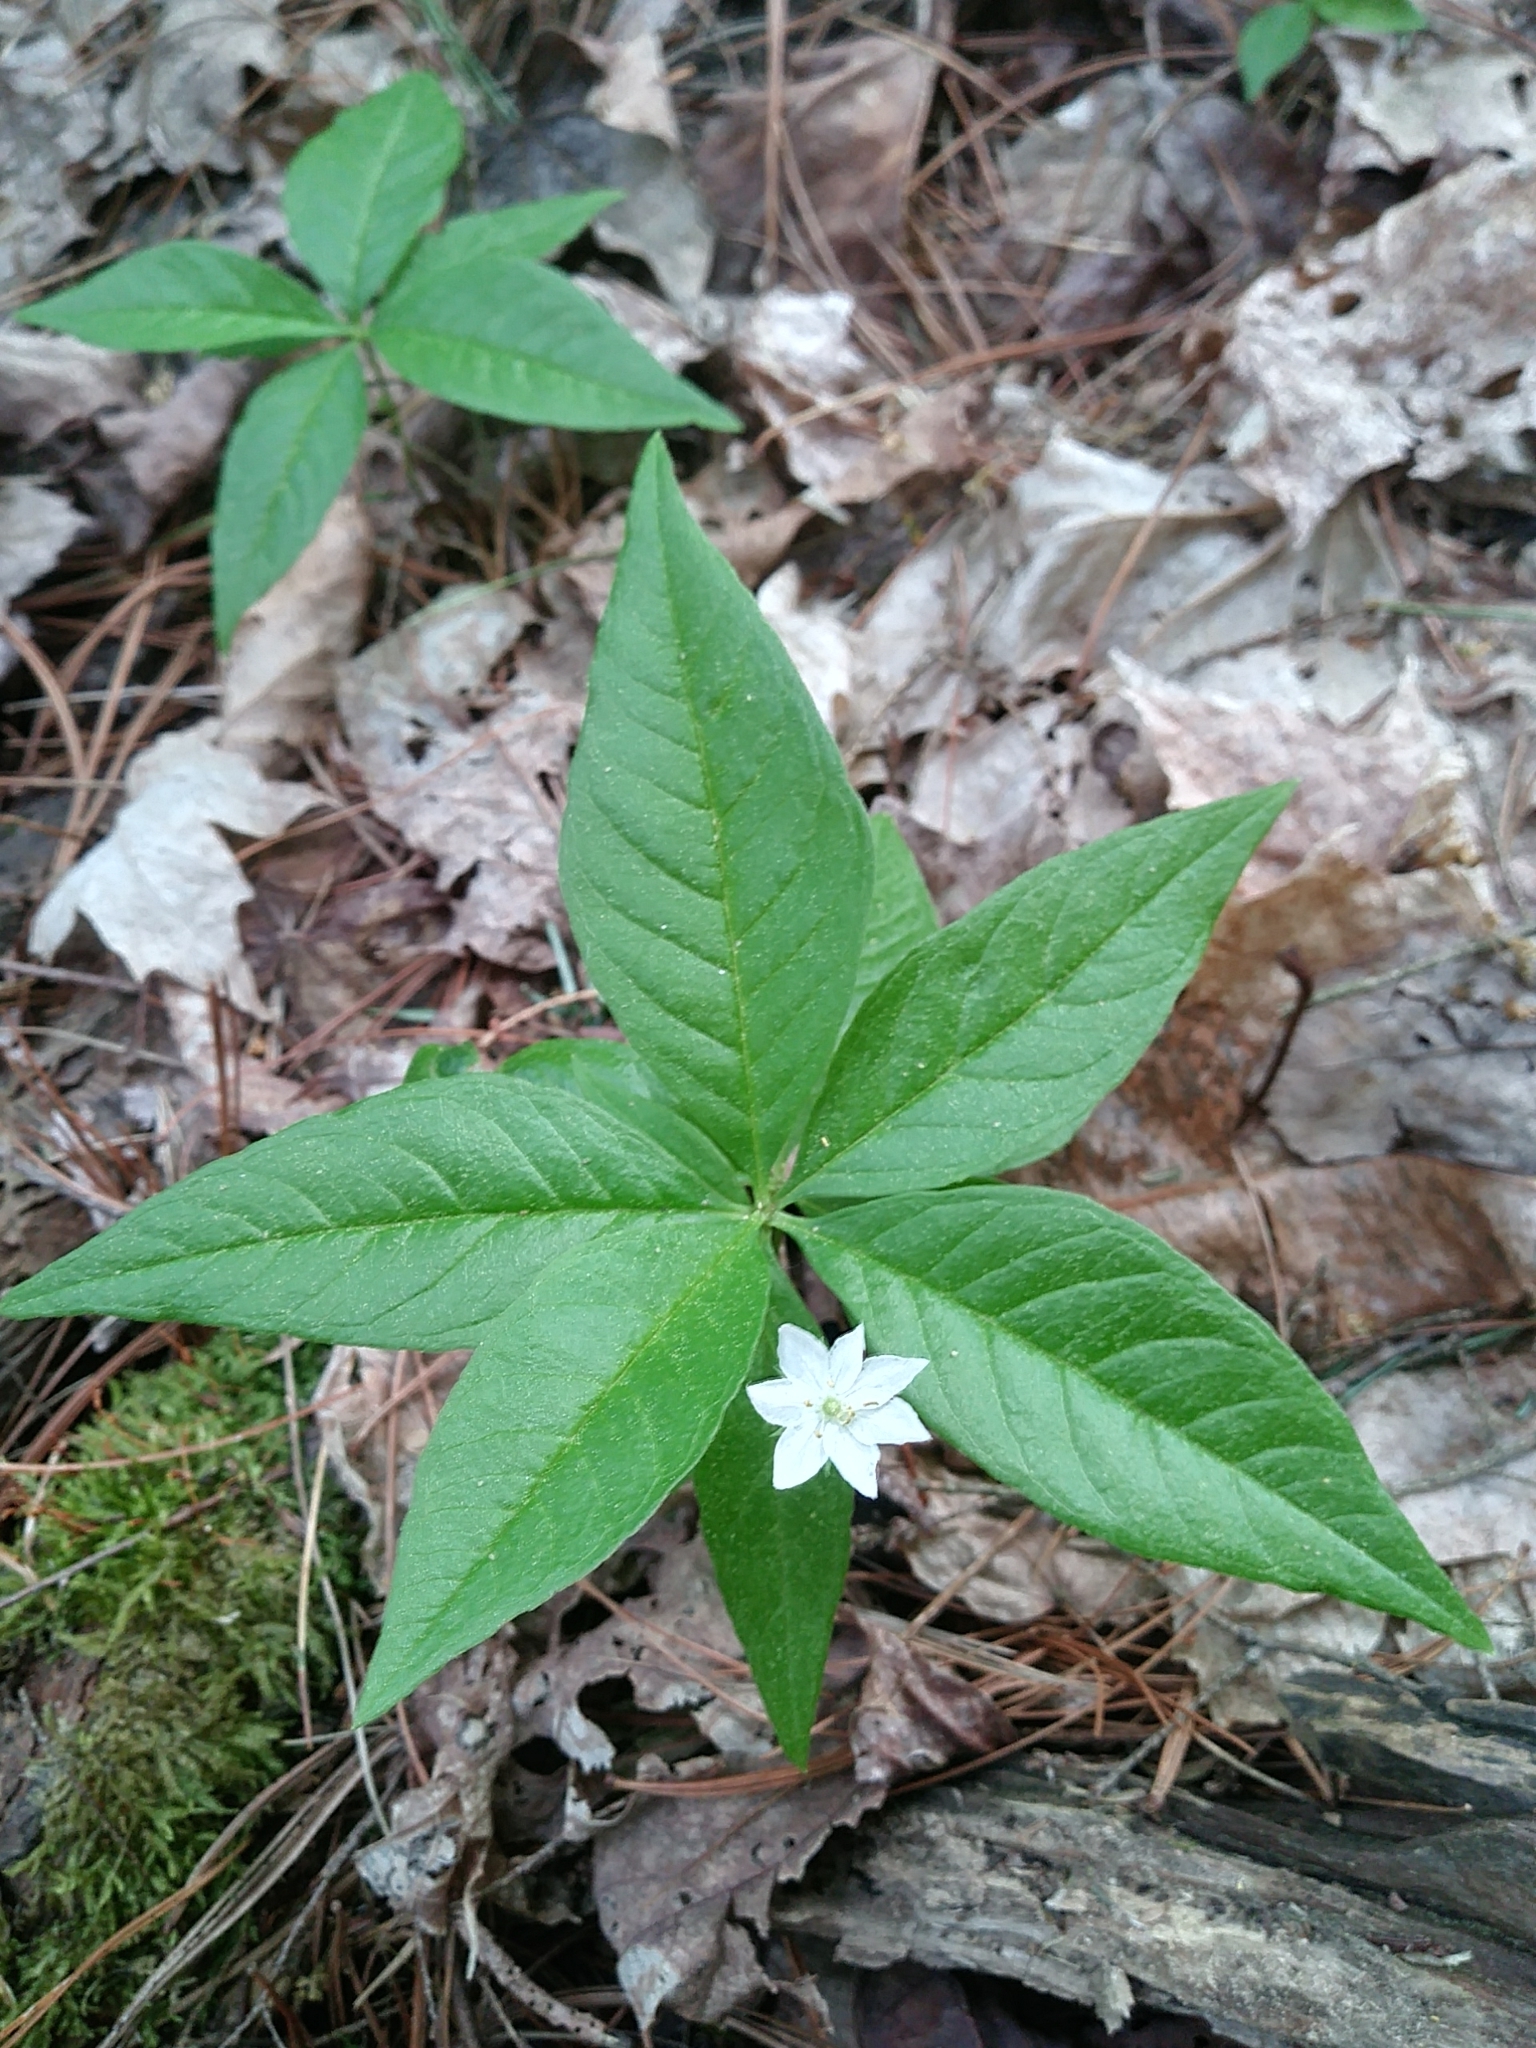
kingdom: Plantae
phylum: Tracheophyta
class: Magnoliopsida
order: Ericales
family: Primulaceae
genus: Lysimachia
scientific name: Lysimachia borealis
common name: American starflower
